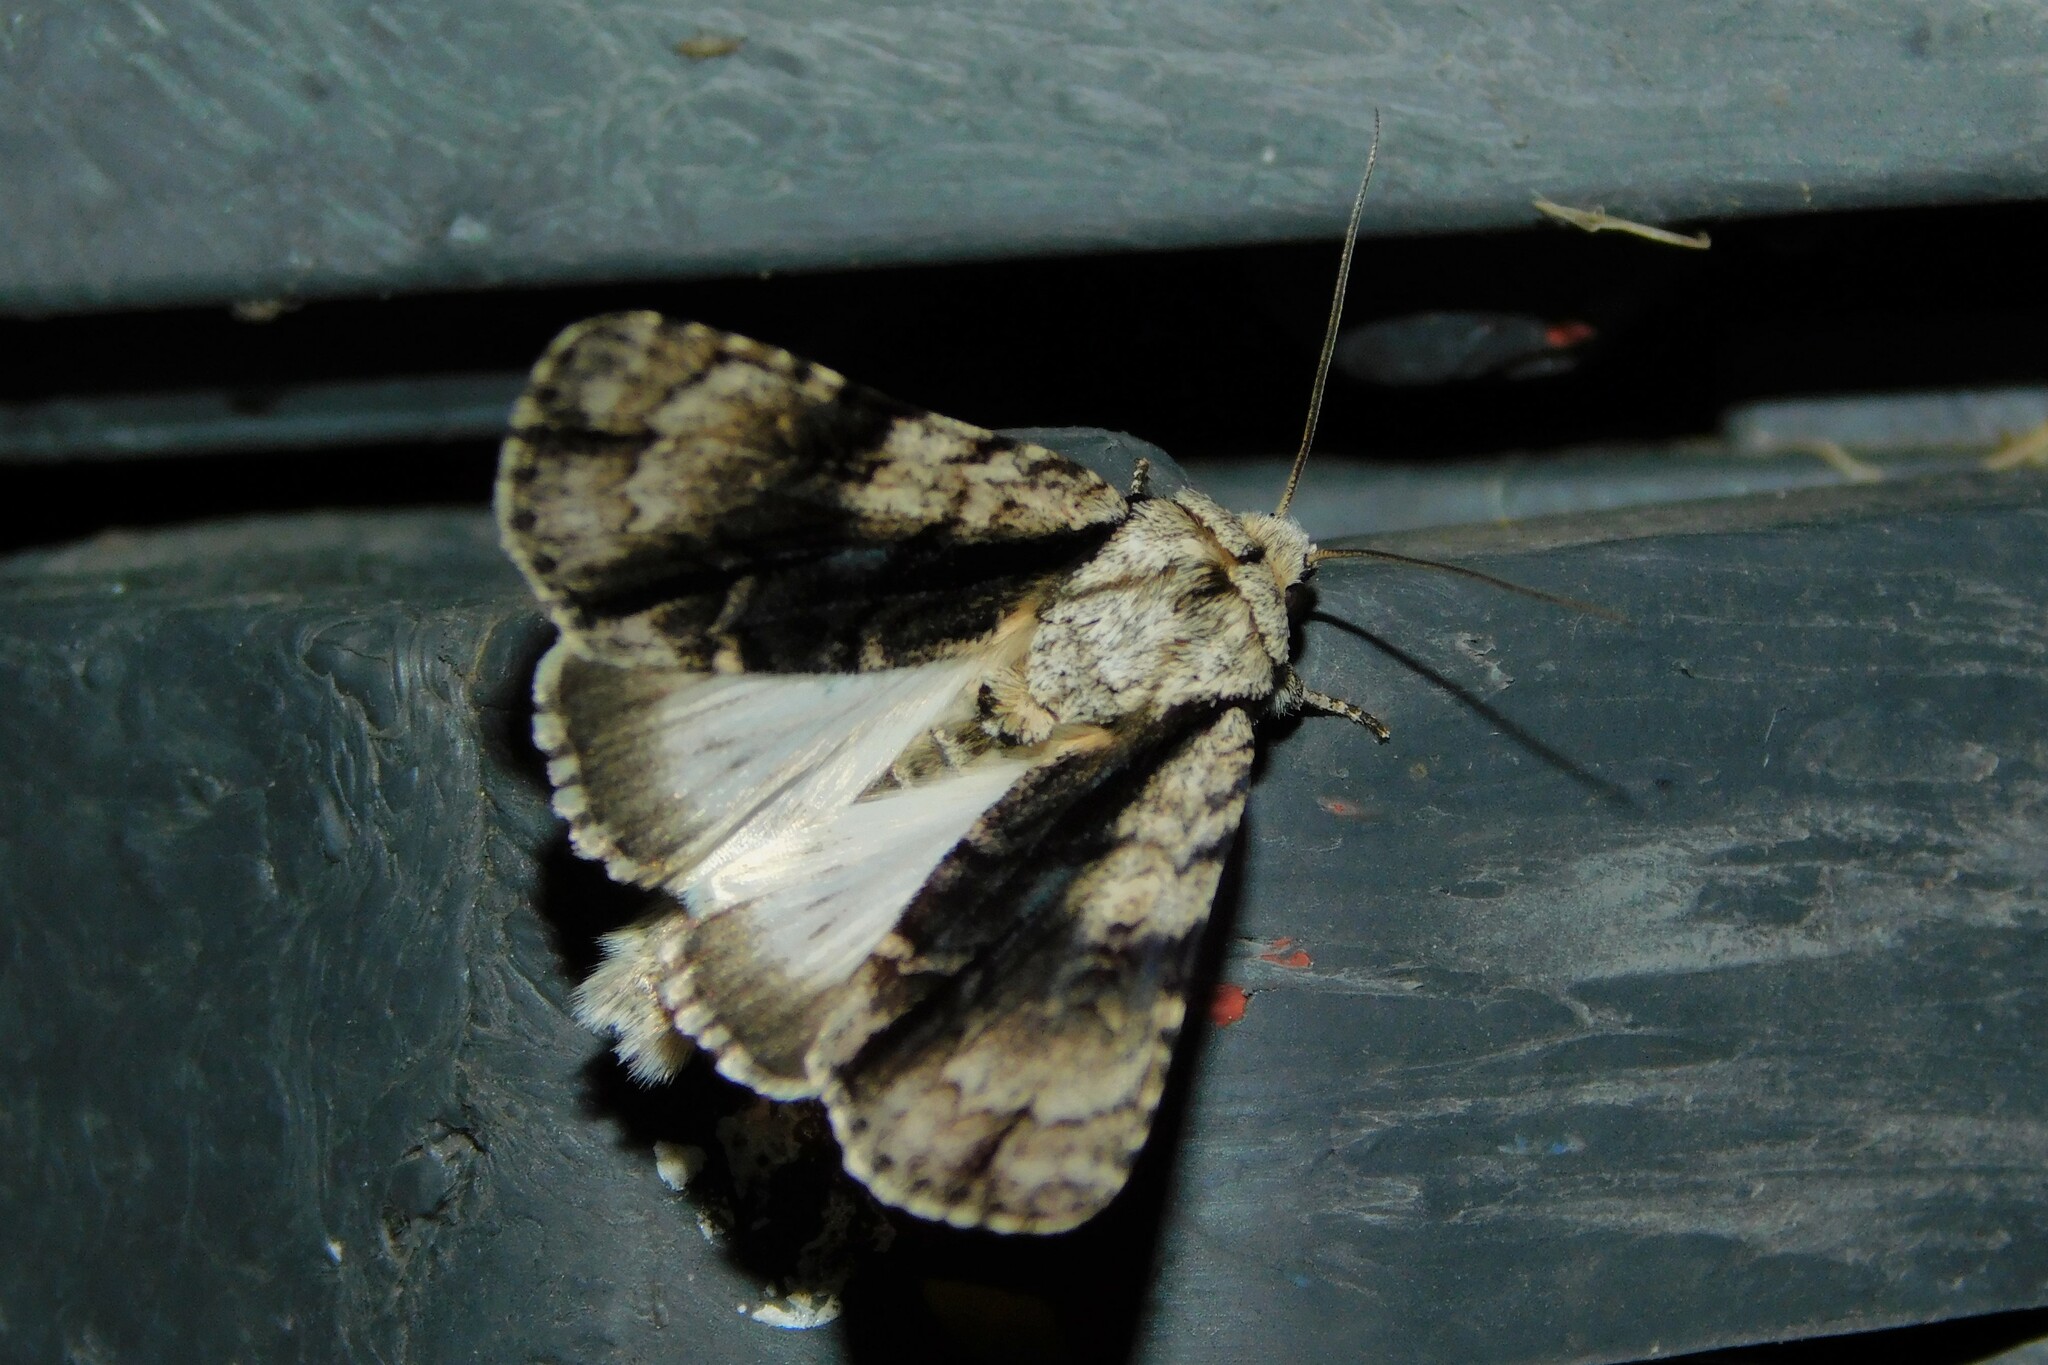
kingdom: Animalia
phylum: Arthropoda
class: Insecta
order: Lepidoptera
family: Noctuidae
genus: Acronicta
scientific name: Acronicta alni
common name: Alder moth
